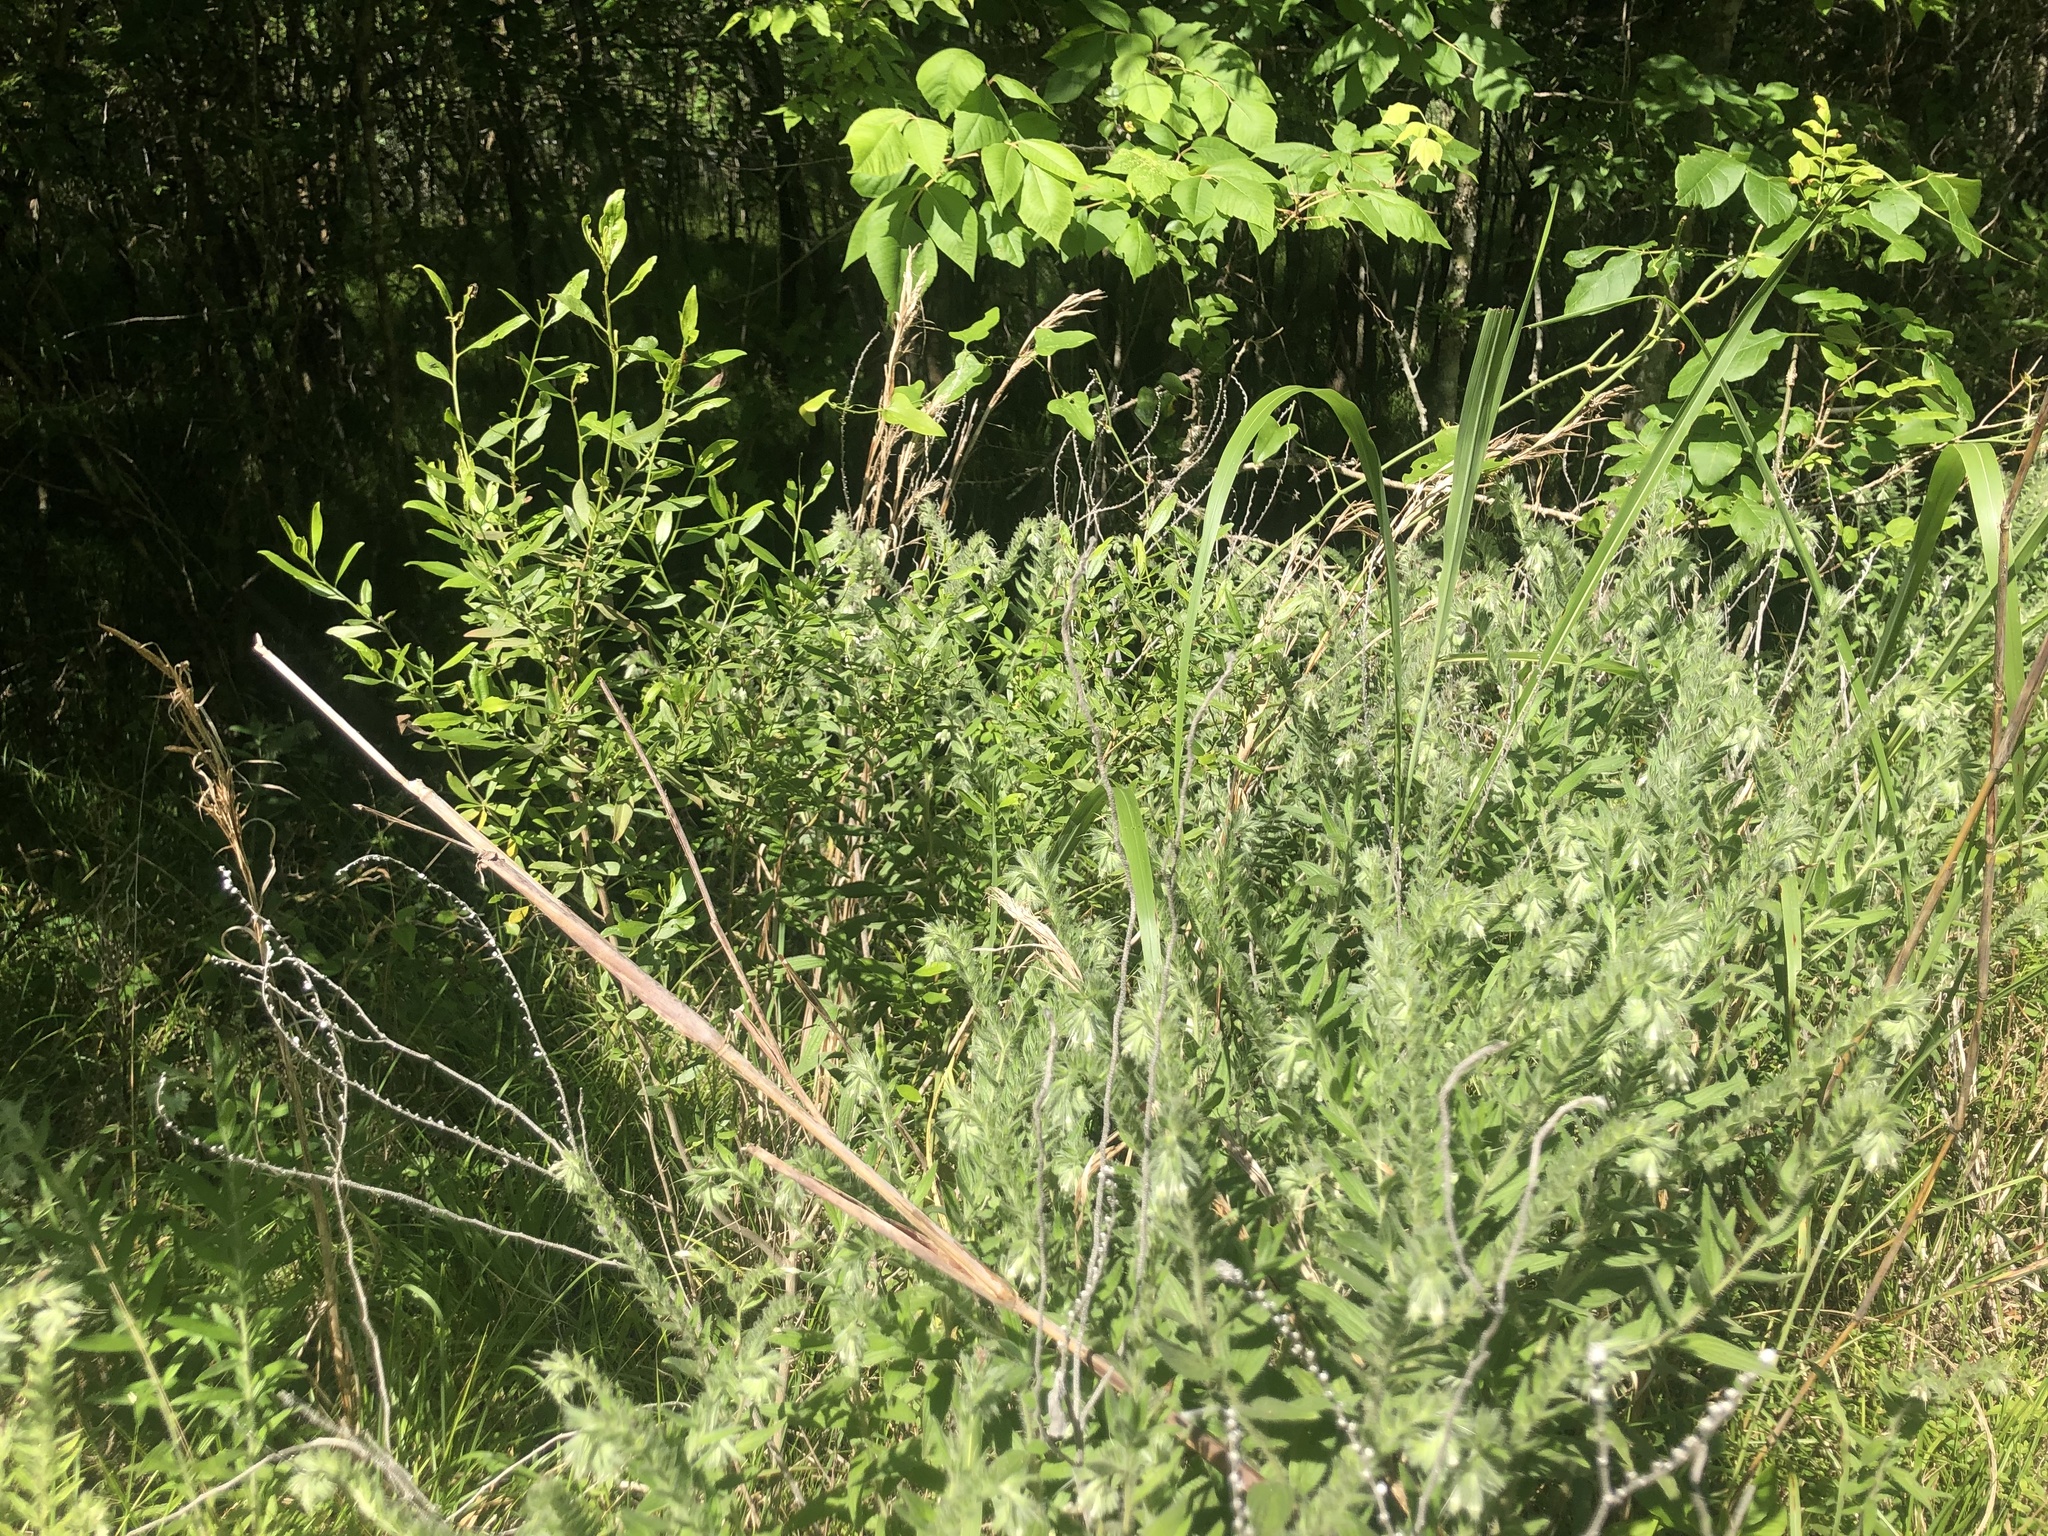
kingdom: Plantae
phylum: Tracheophyta
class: Magnoliopsida
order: Boraginales
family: Boraginaceae
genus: Lithospermum
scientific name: Lithospermum caroliniense
